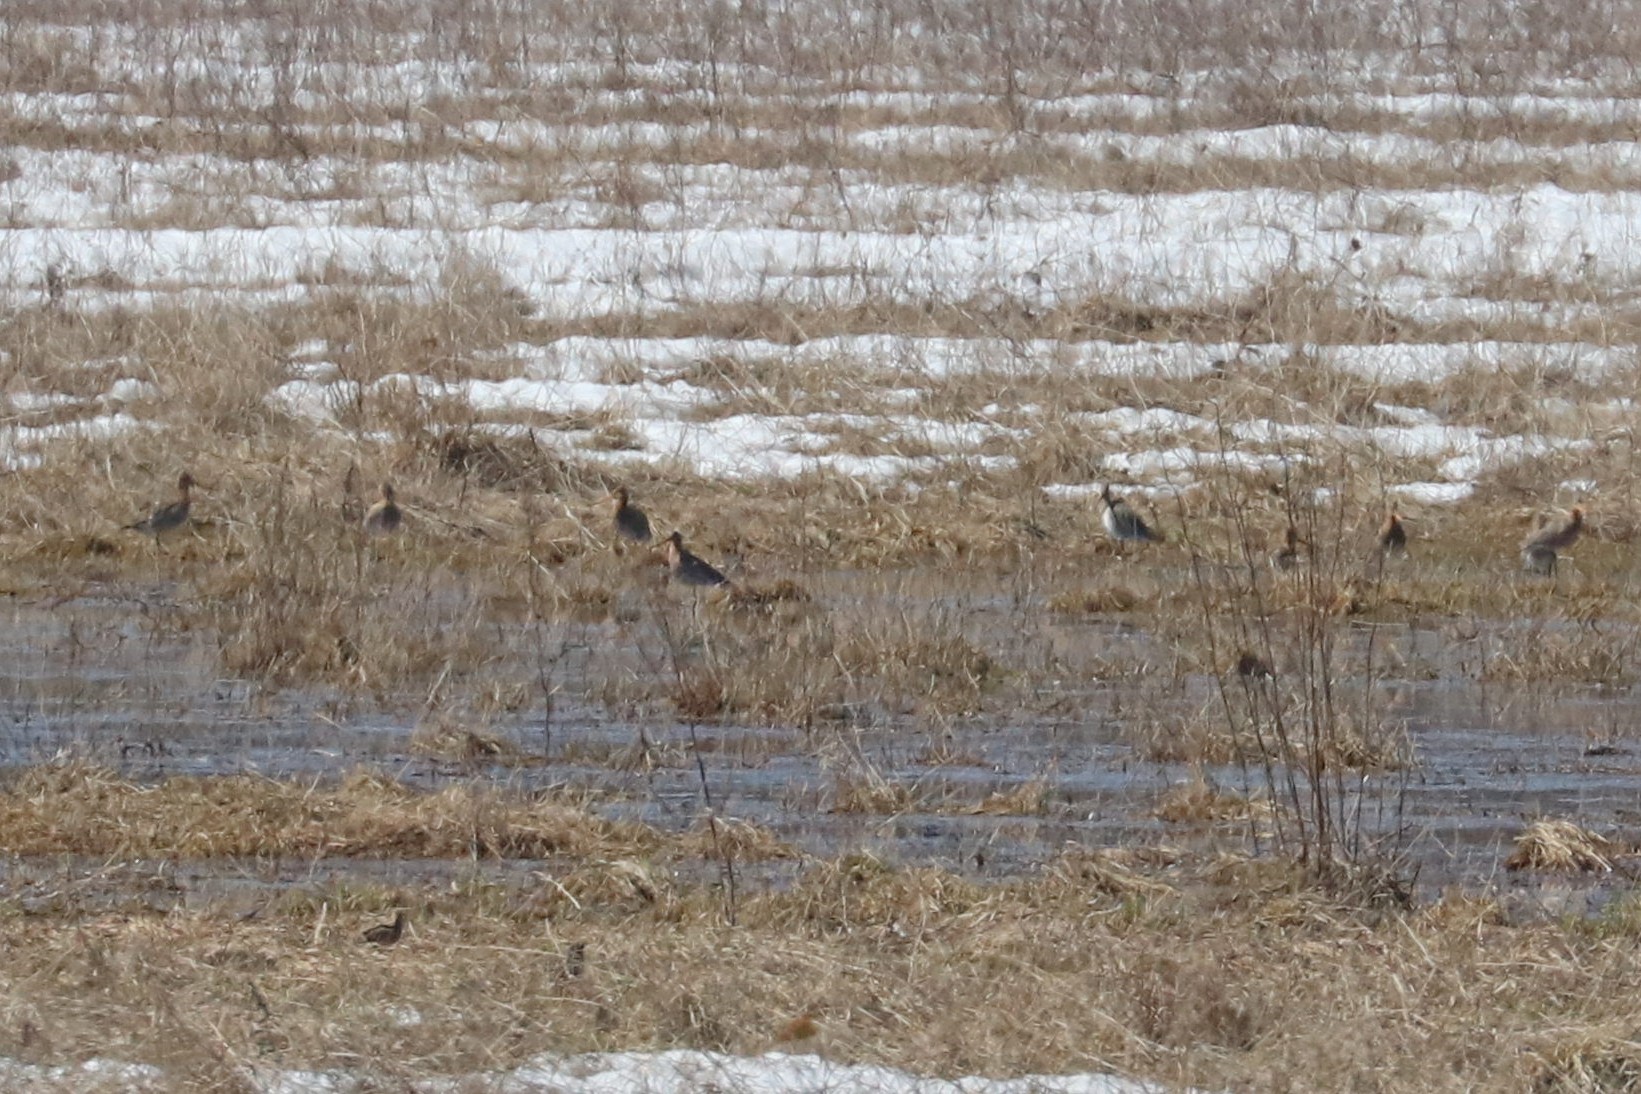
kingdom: Animalia
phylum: Chordata
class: Aves
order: Charadriiformes
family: Scolopacidae
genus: Limosa
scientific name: Limosa limosa
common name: Black-tailed godwit
